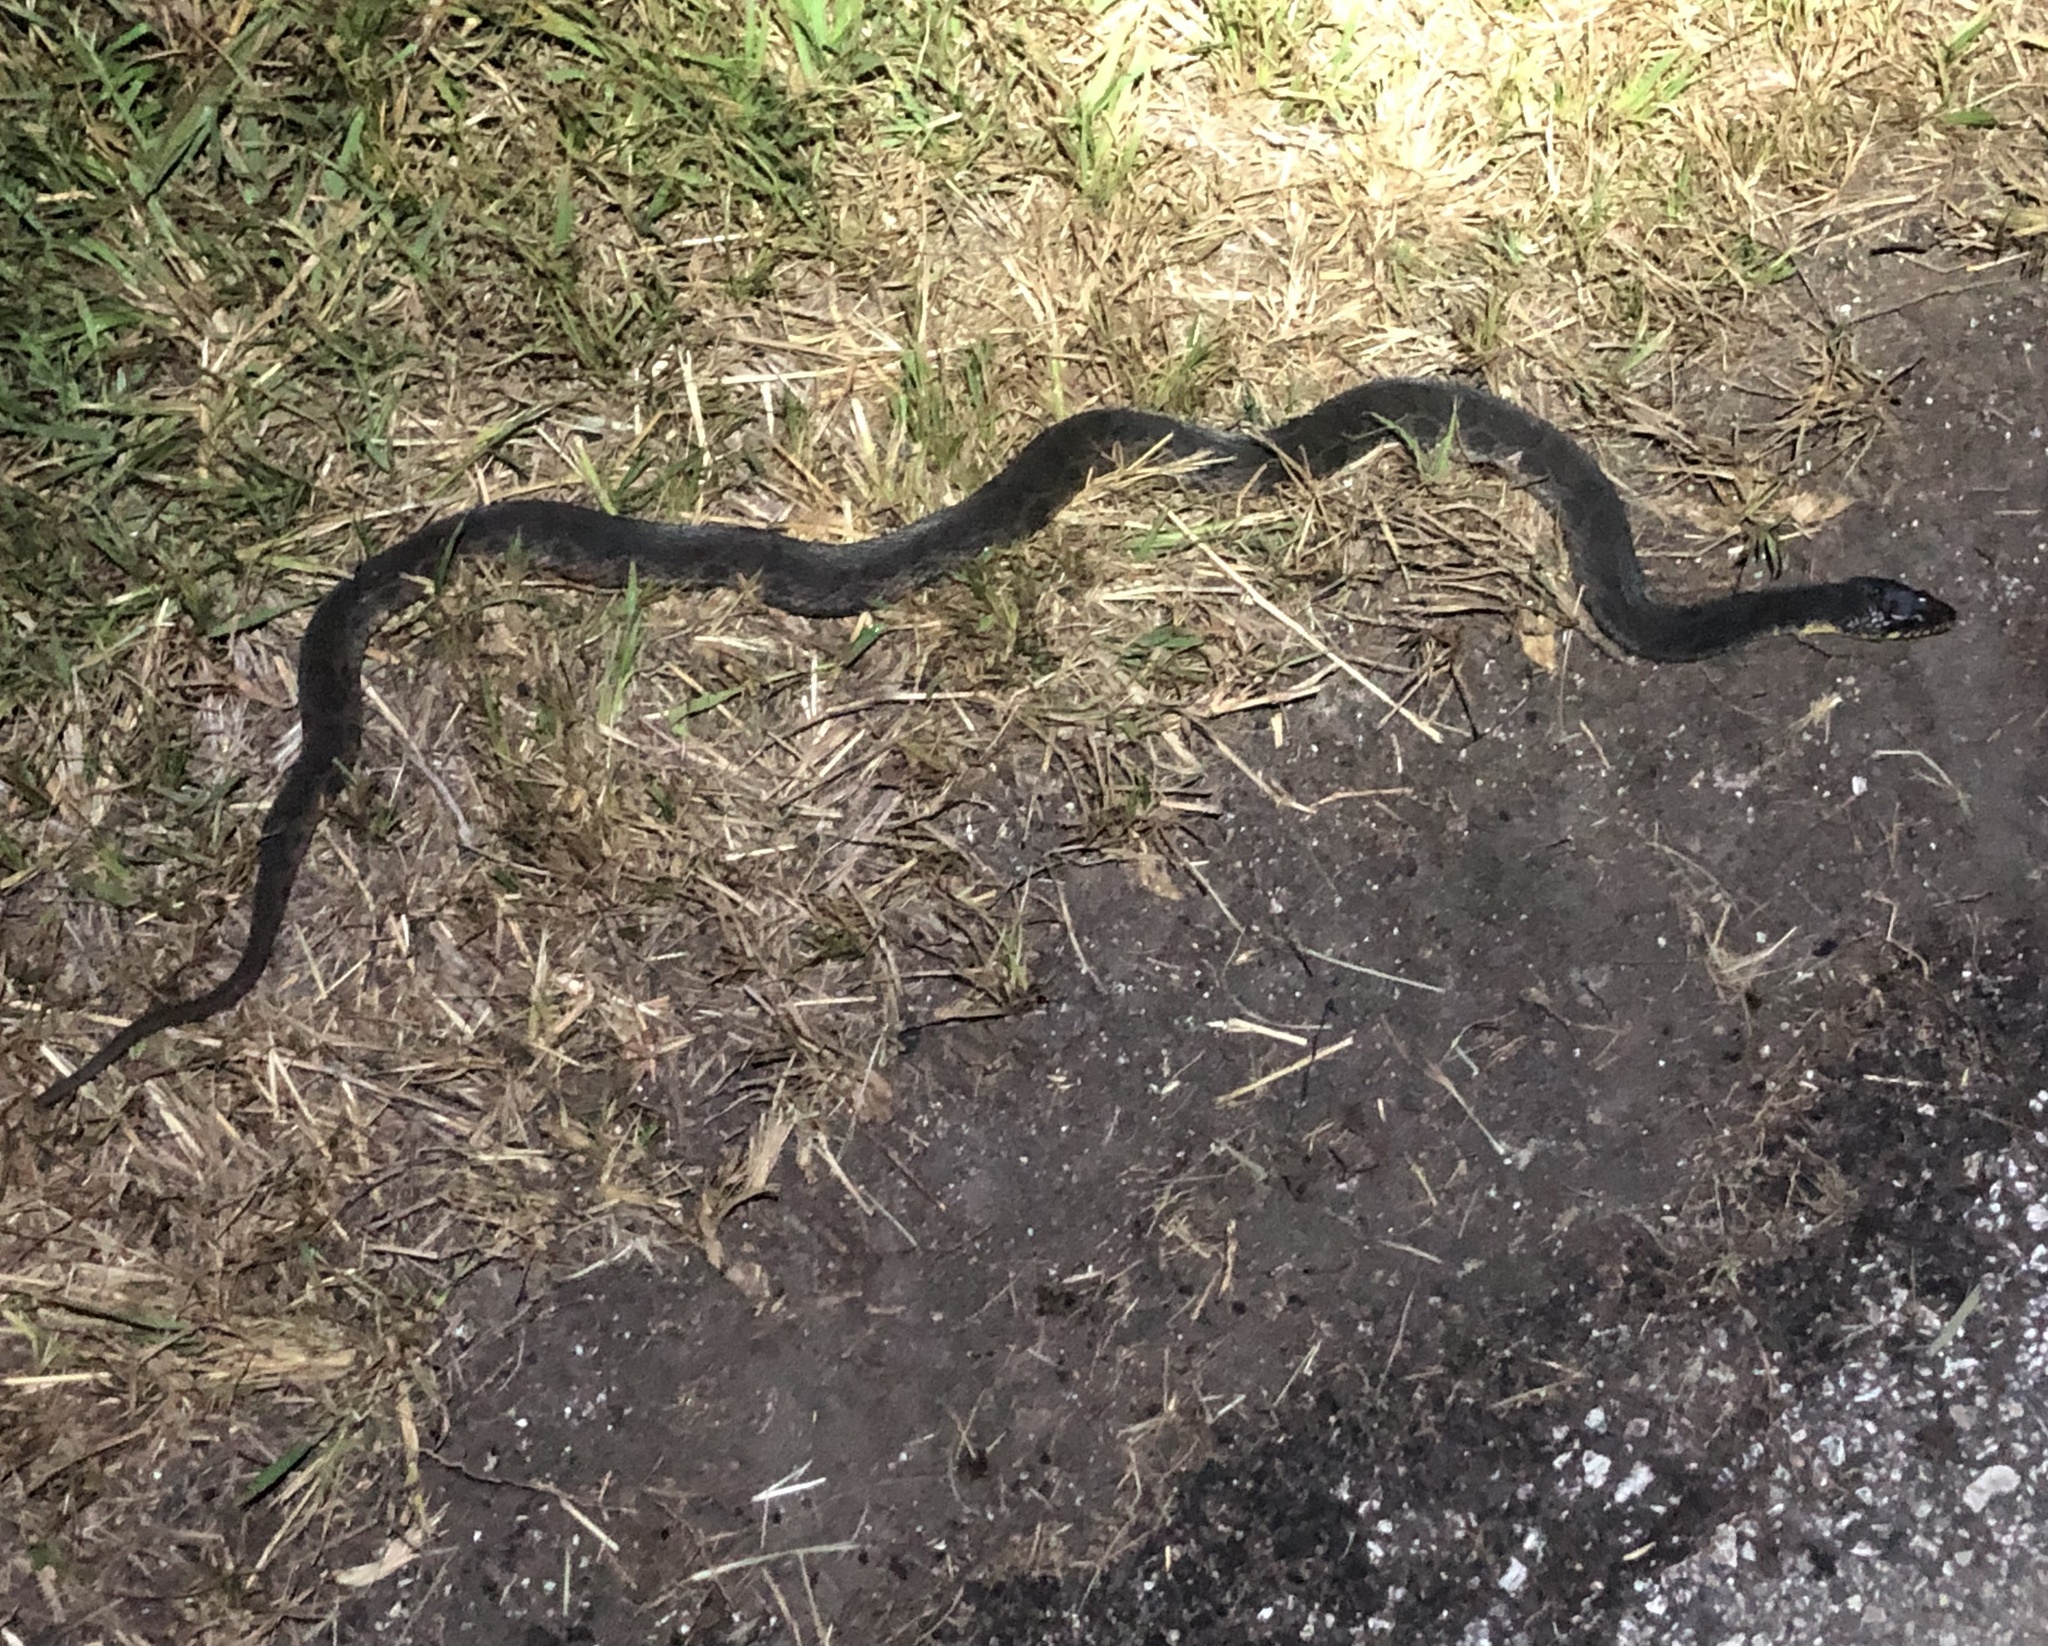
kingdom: Animalia
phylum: Chordata
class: Squamata
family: Colubridae
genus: Nerodia
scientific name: Nerodia erythrogaster
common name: Plainbelly water snake
